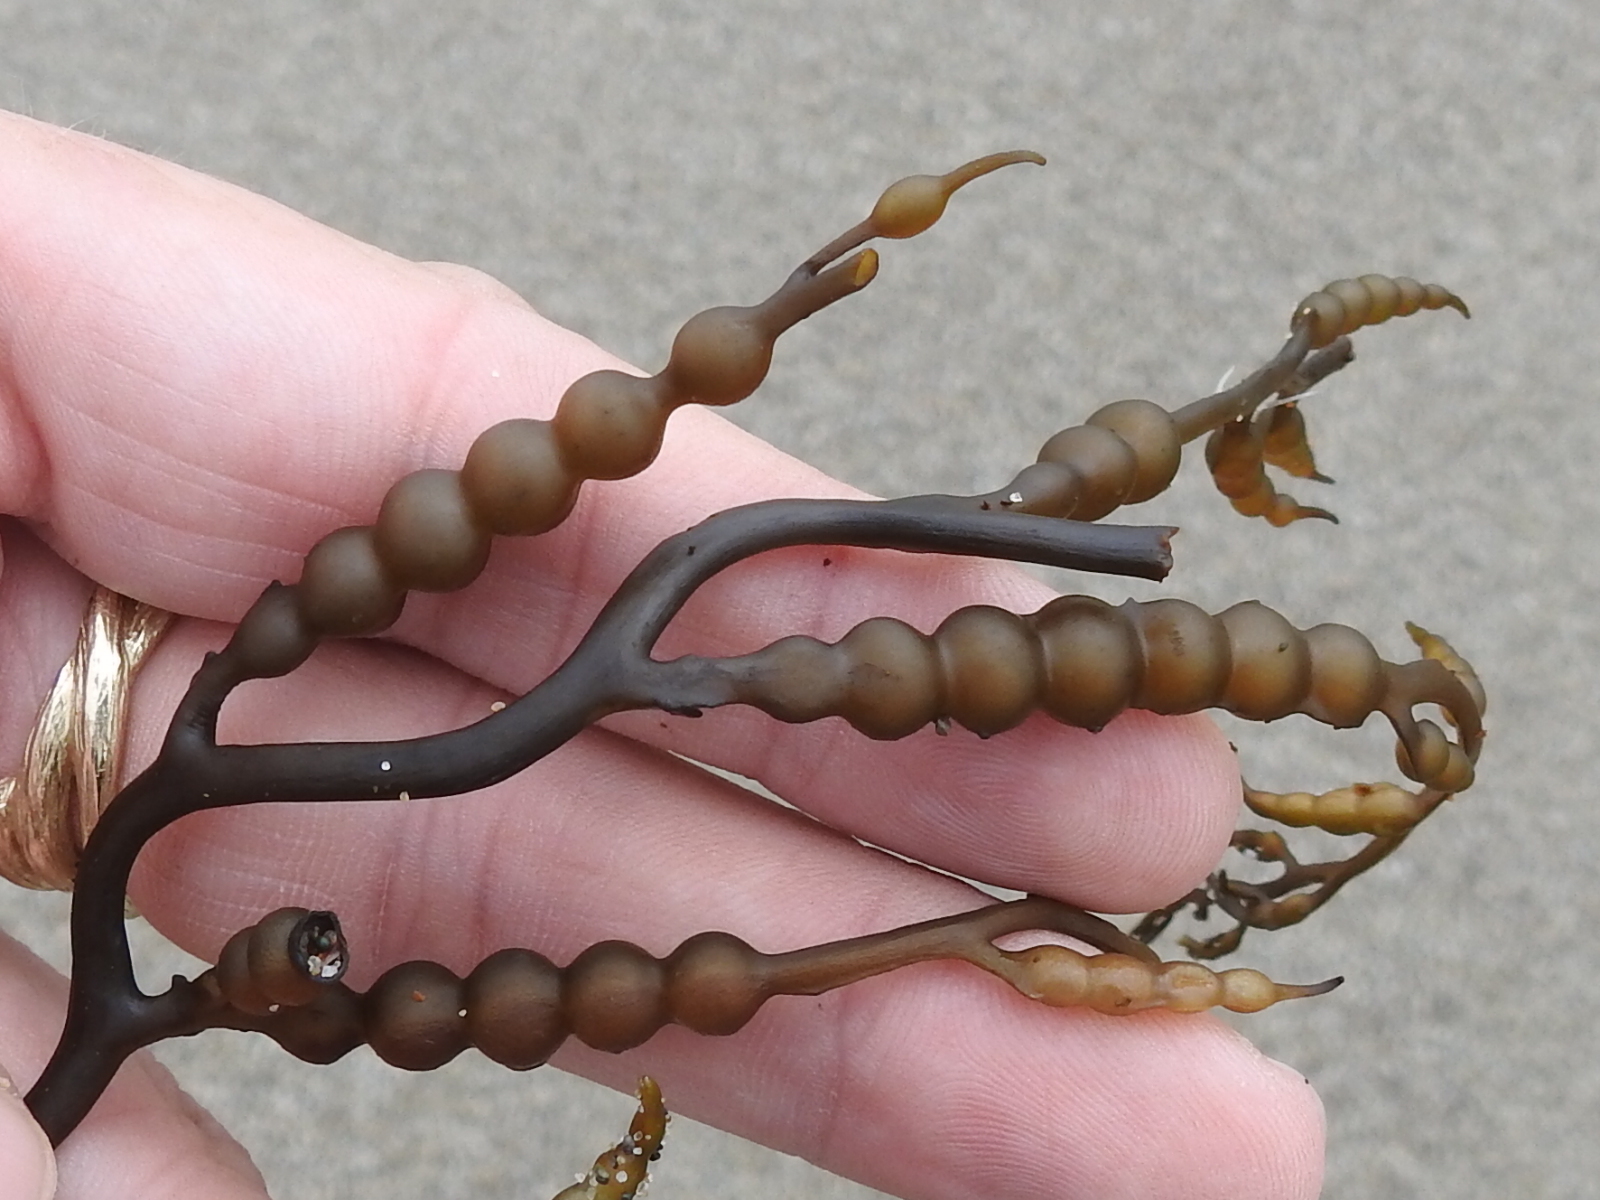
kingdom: Chromista
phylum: Ochrophyta
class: Phaeophyceae
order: Fucales
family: Sargassaceae
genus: Stephanocystis
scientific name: Stephanocystis
